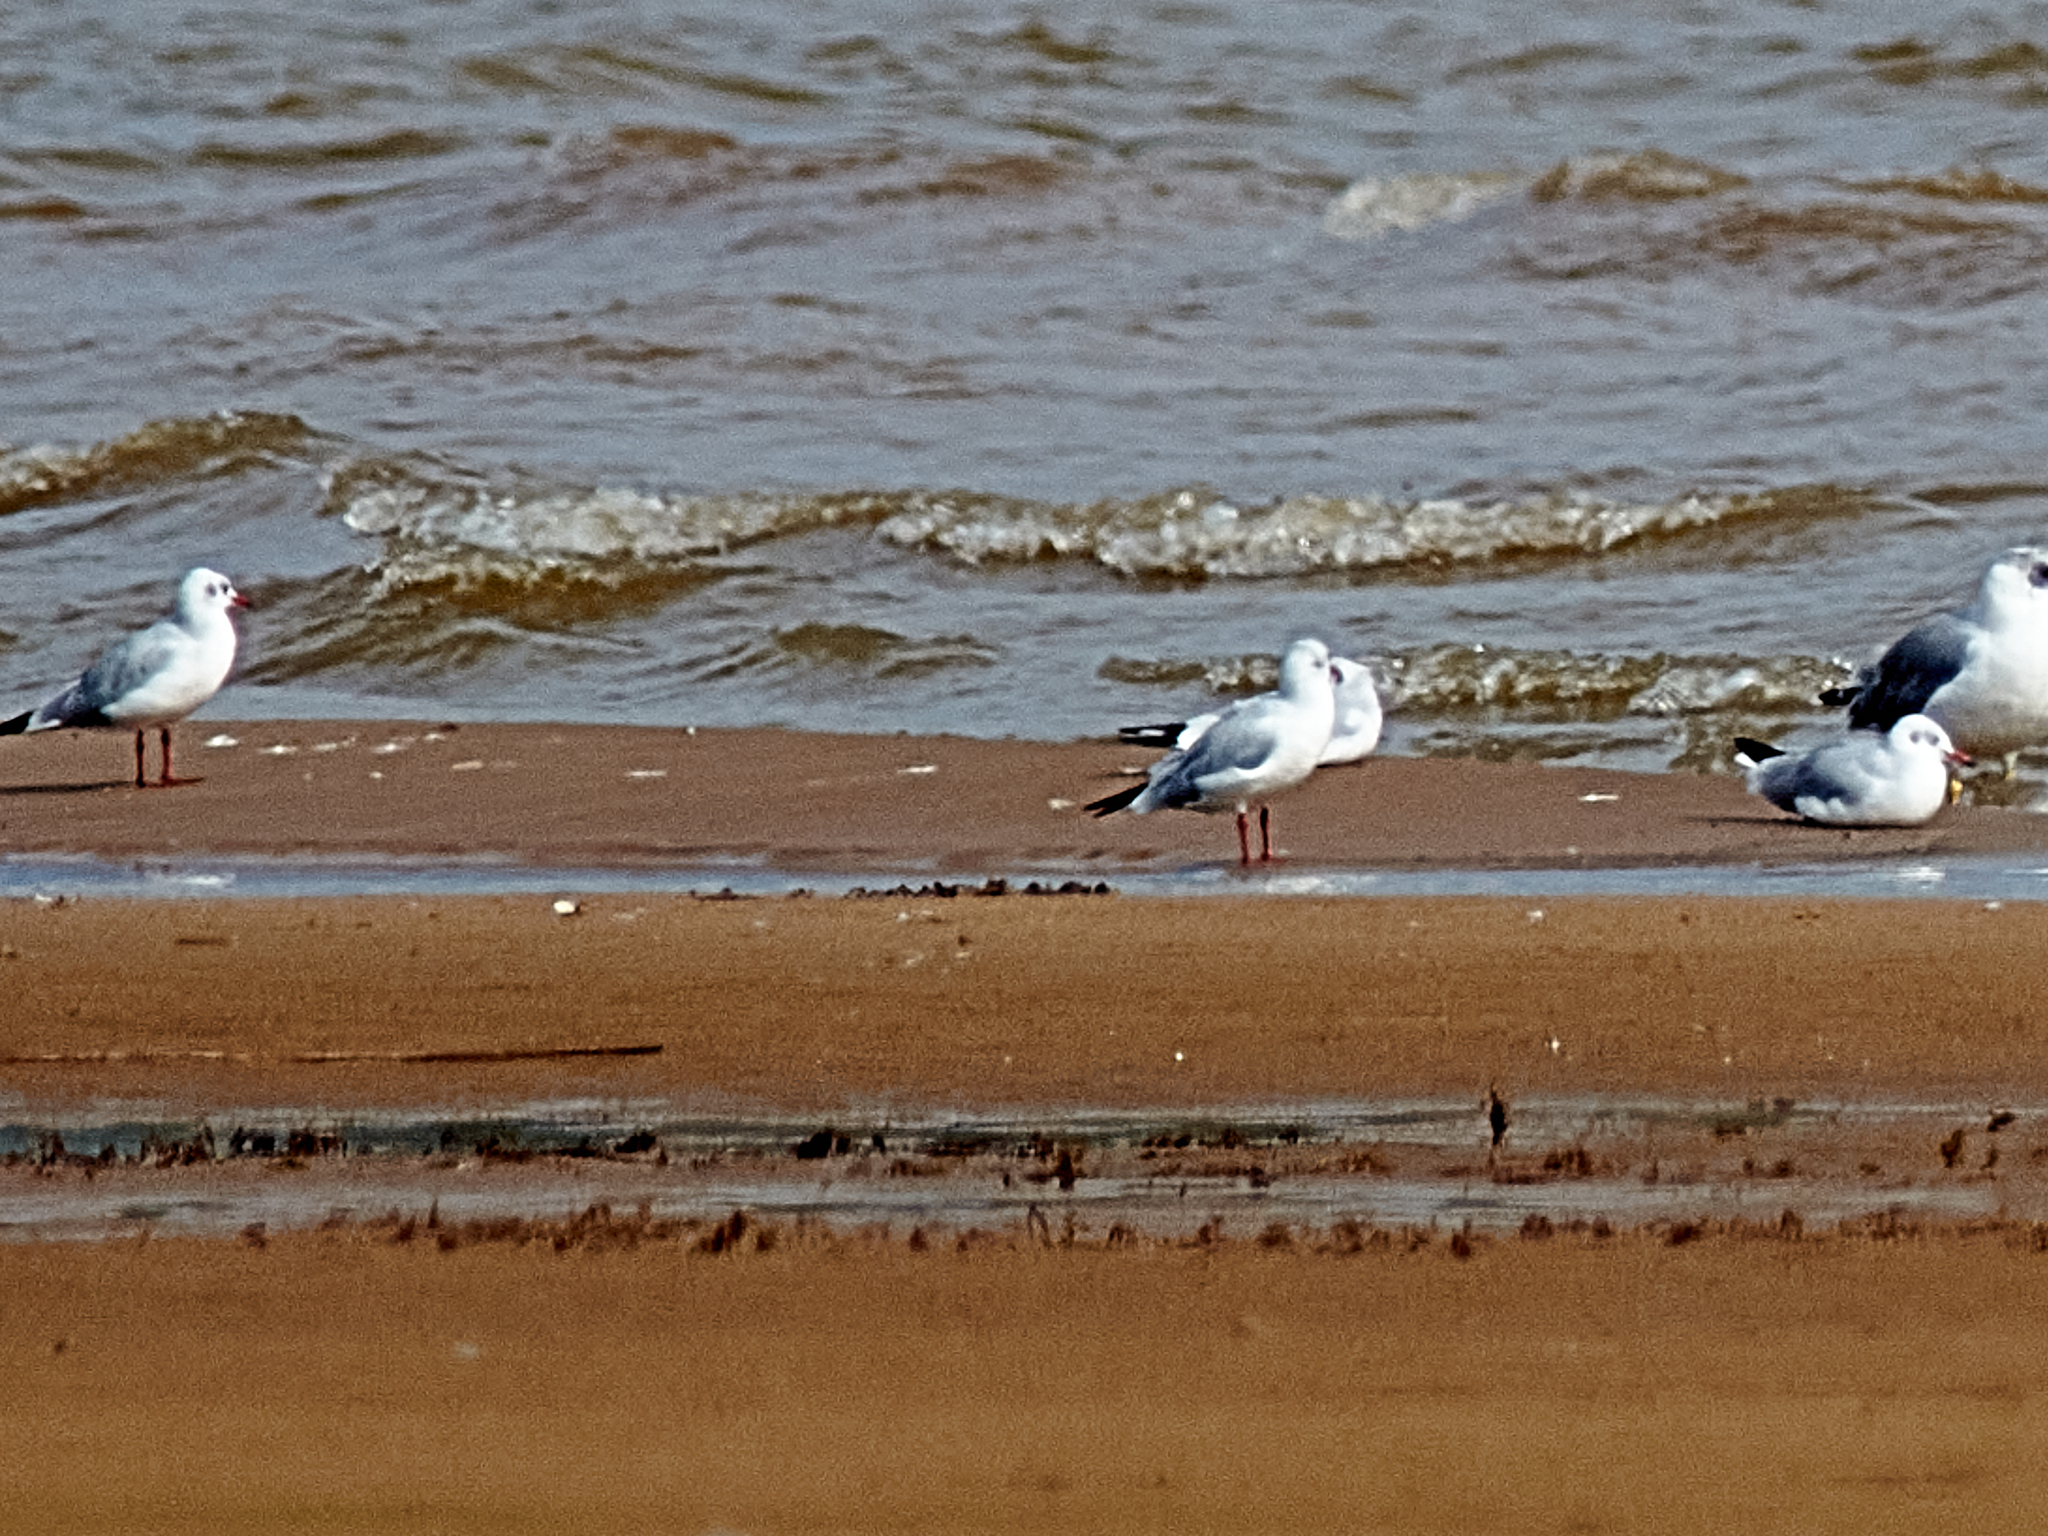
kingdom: Animalia
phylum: Chordata
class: Aves
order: Charadriiformes
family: Laridae
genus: Chroicocephalus
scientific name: Chroicocephalus ridibundus
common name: Black-headed gull
